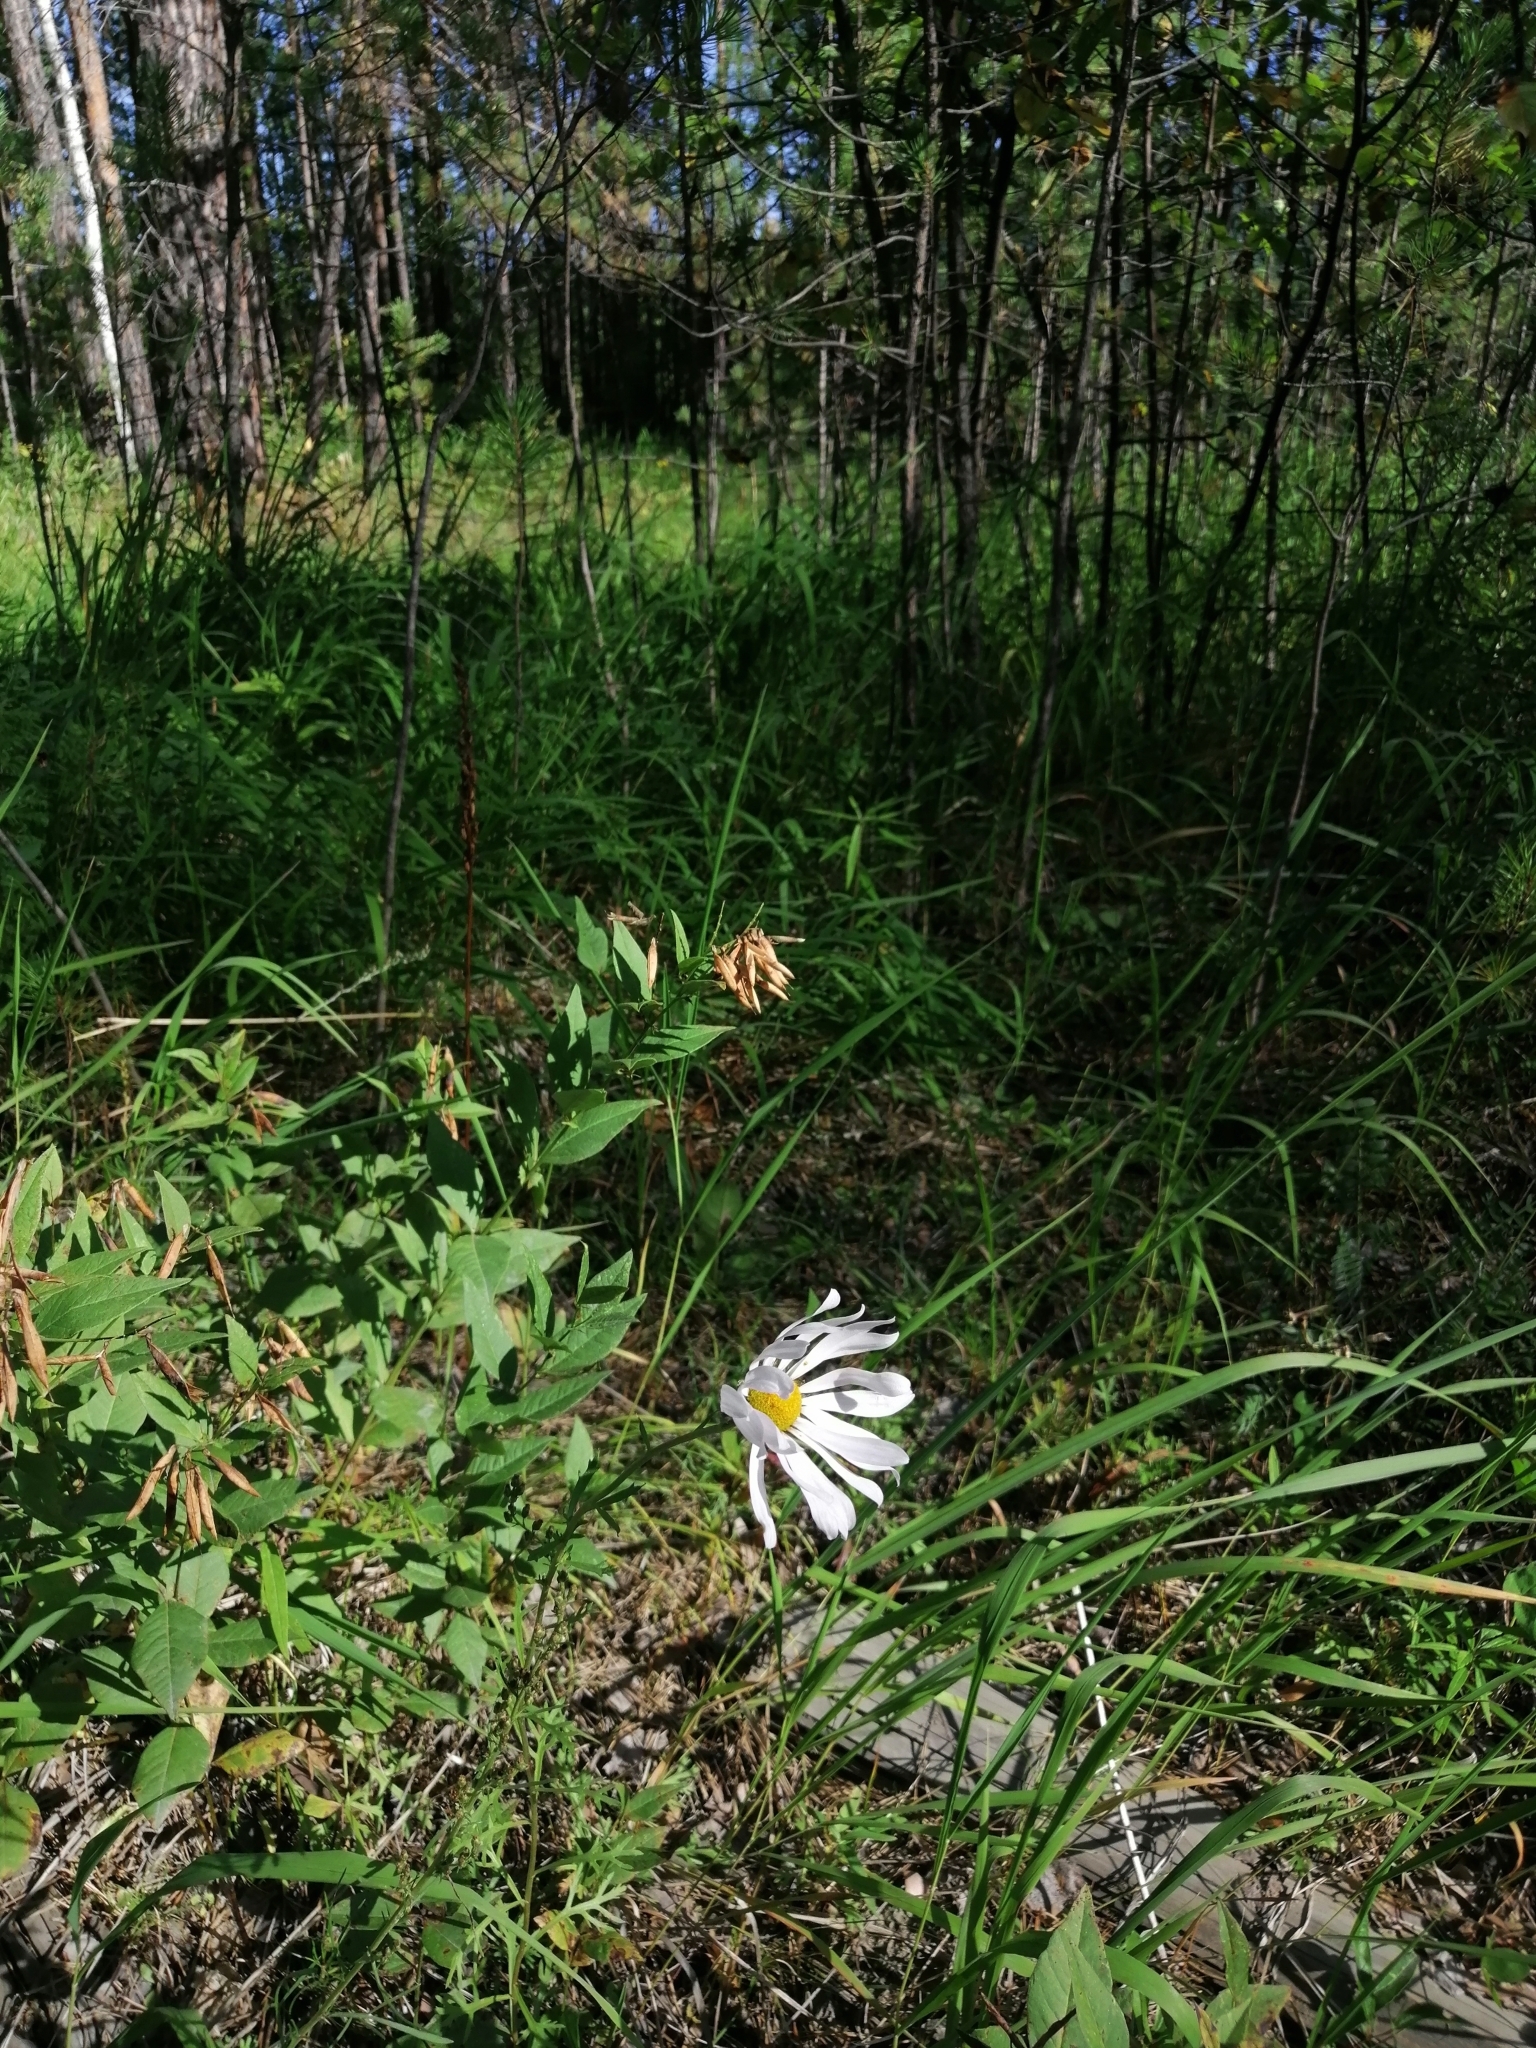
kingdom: Plantae
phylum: Tracheophyta
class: Magnoliopsida
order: Asterales
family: Asteraceae
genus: Chrysanthemum
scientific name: Chrysanthemum zawadzkii
